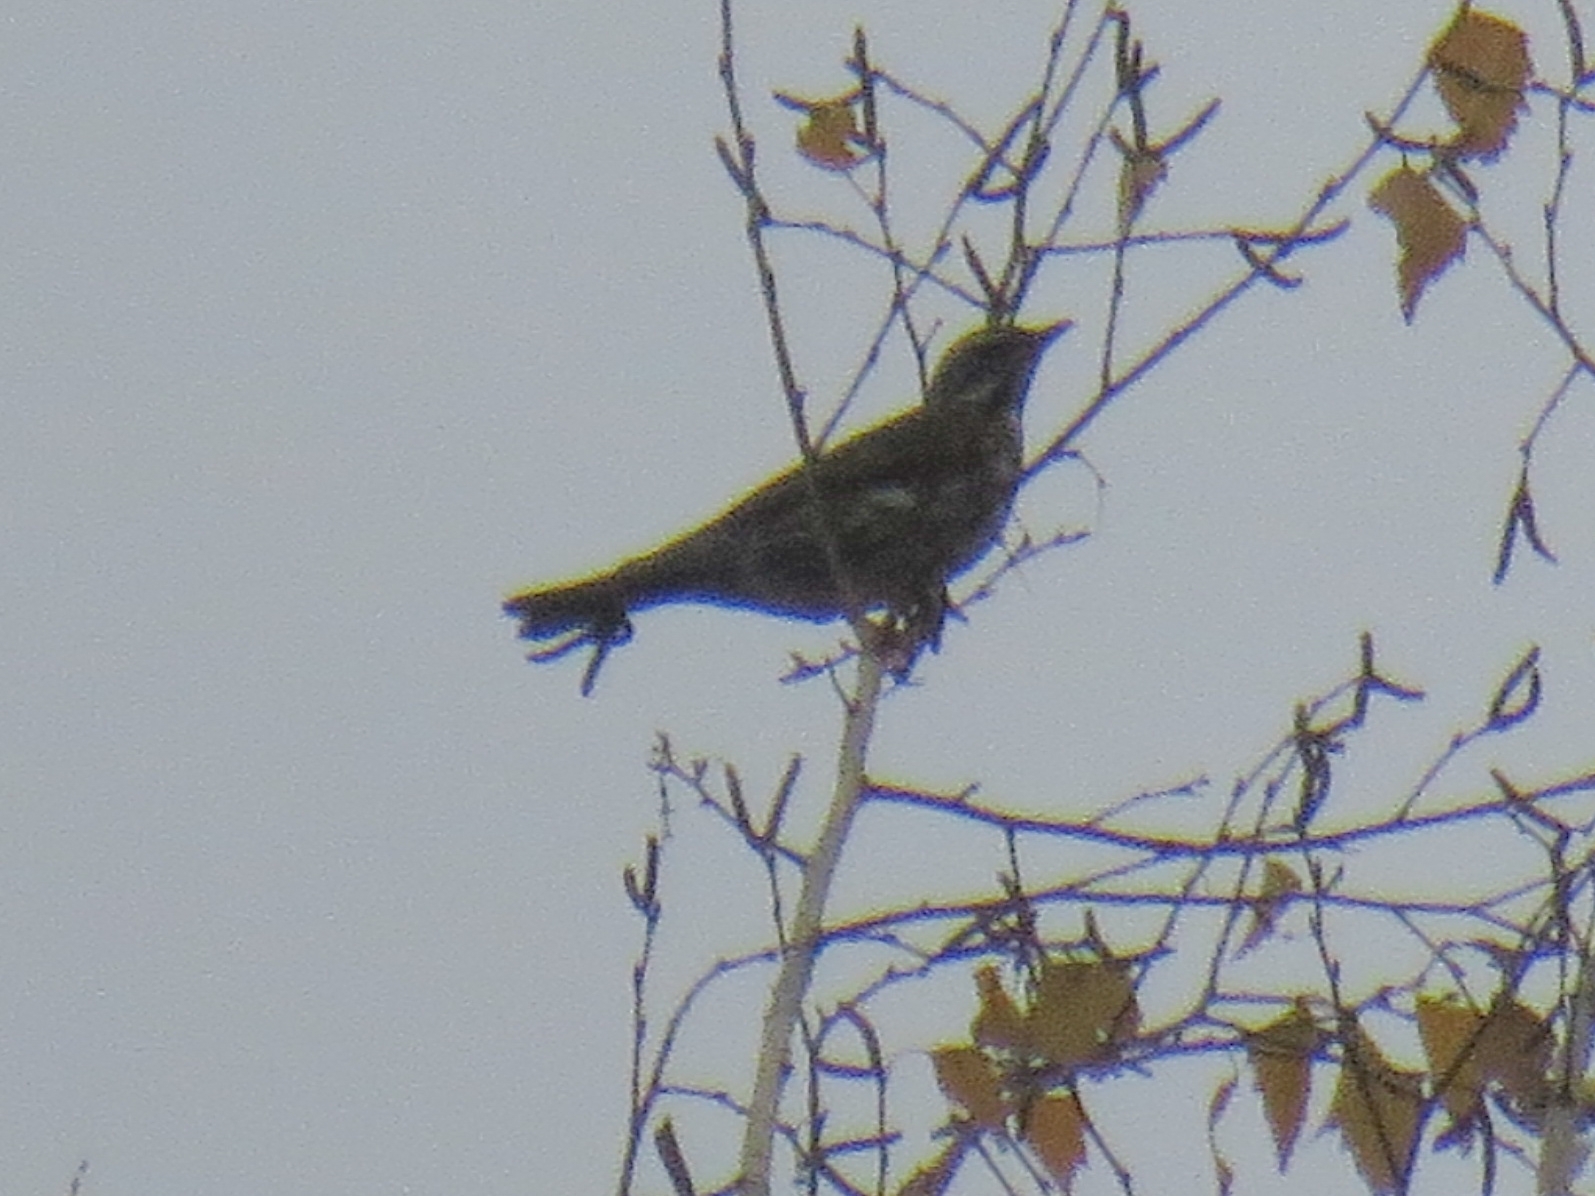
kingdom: Animalia
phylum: Chordata
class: Aves
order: Passeriformes
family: Turdidae
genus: Turdus
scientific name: Turdus iliacus
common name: Redwing
